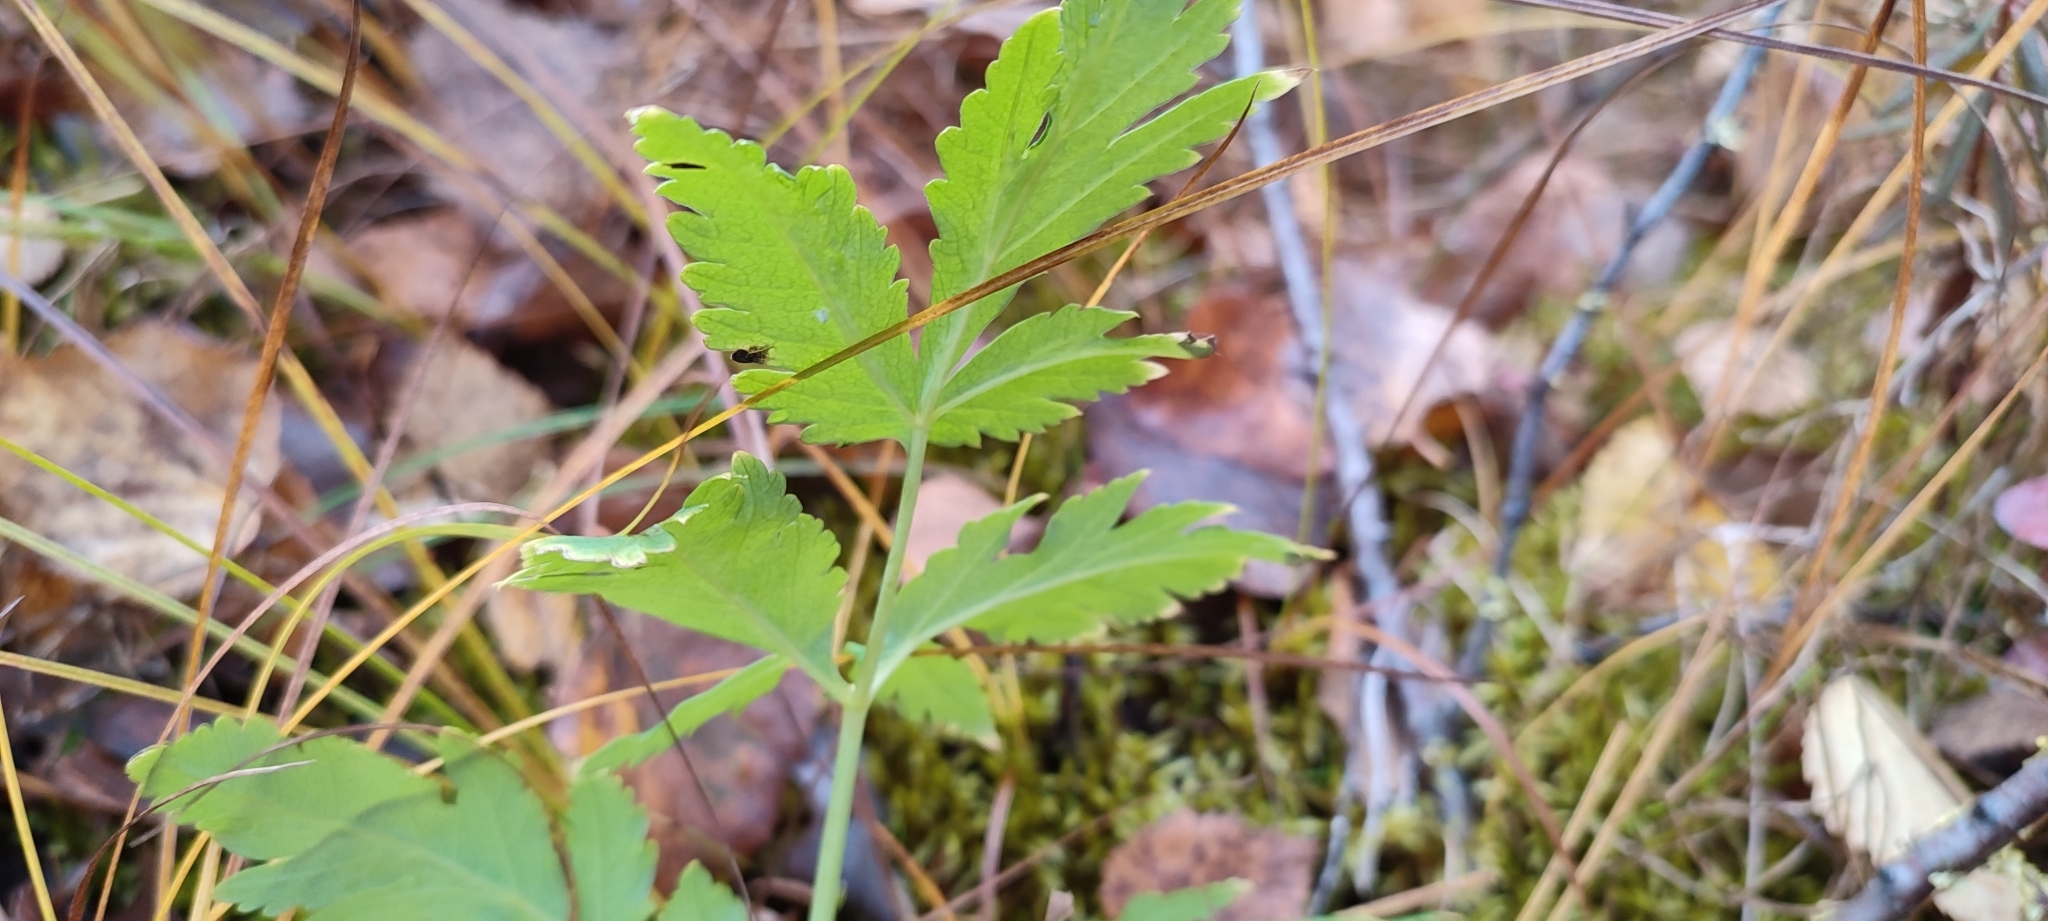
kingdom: Plantae
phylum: Tracheophyta
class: Magnoliopsida
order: Apiales
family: Apiaceae
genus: Angelica
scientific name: Angelica decurrens
